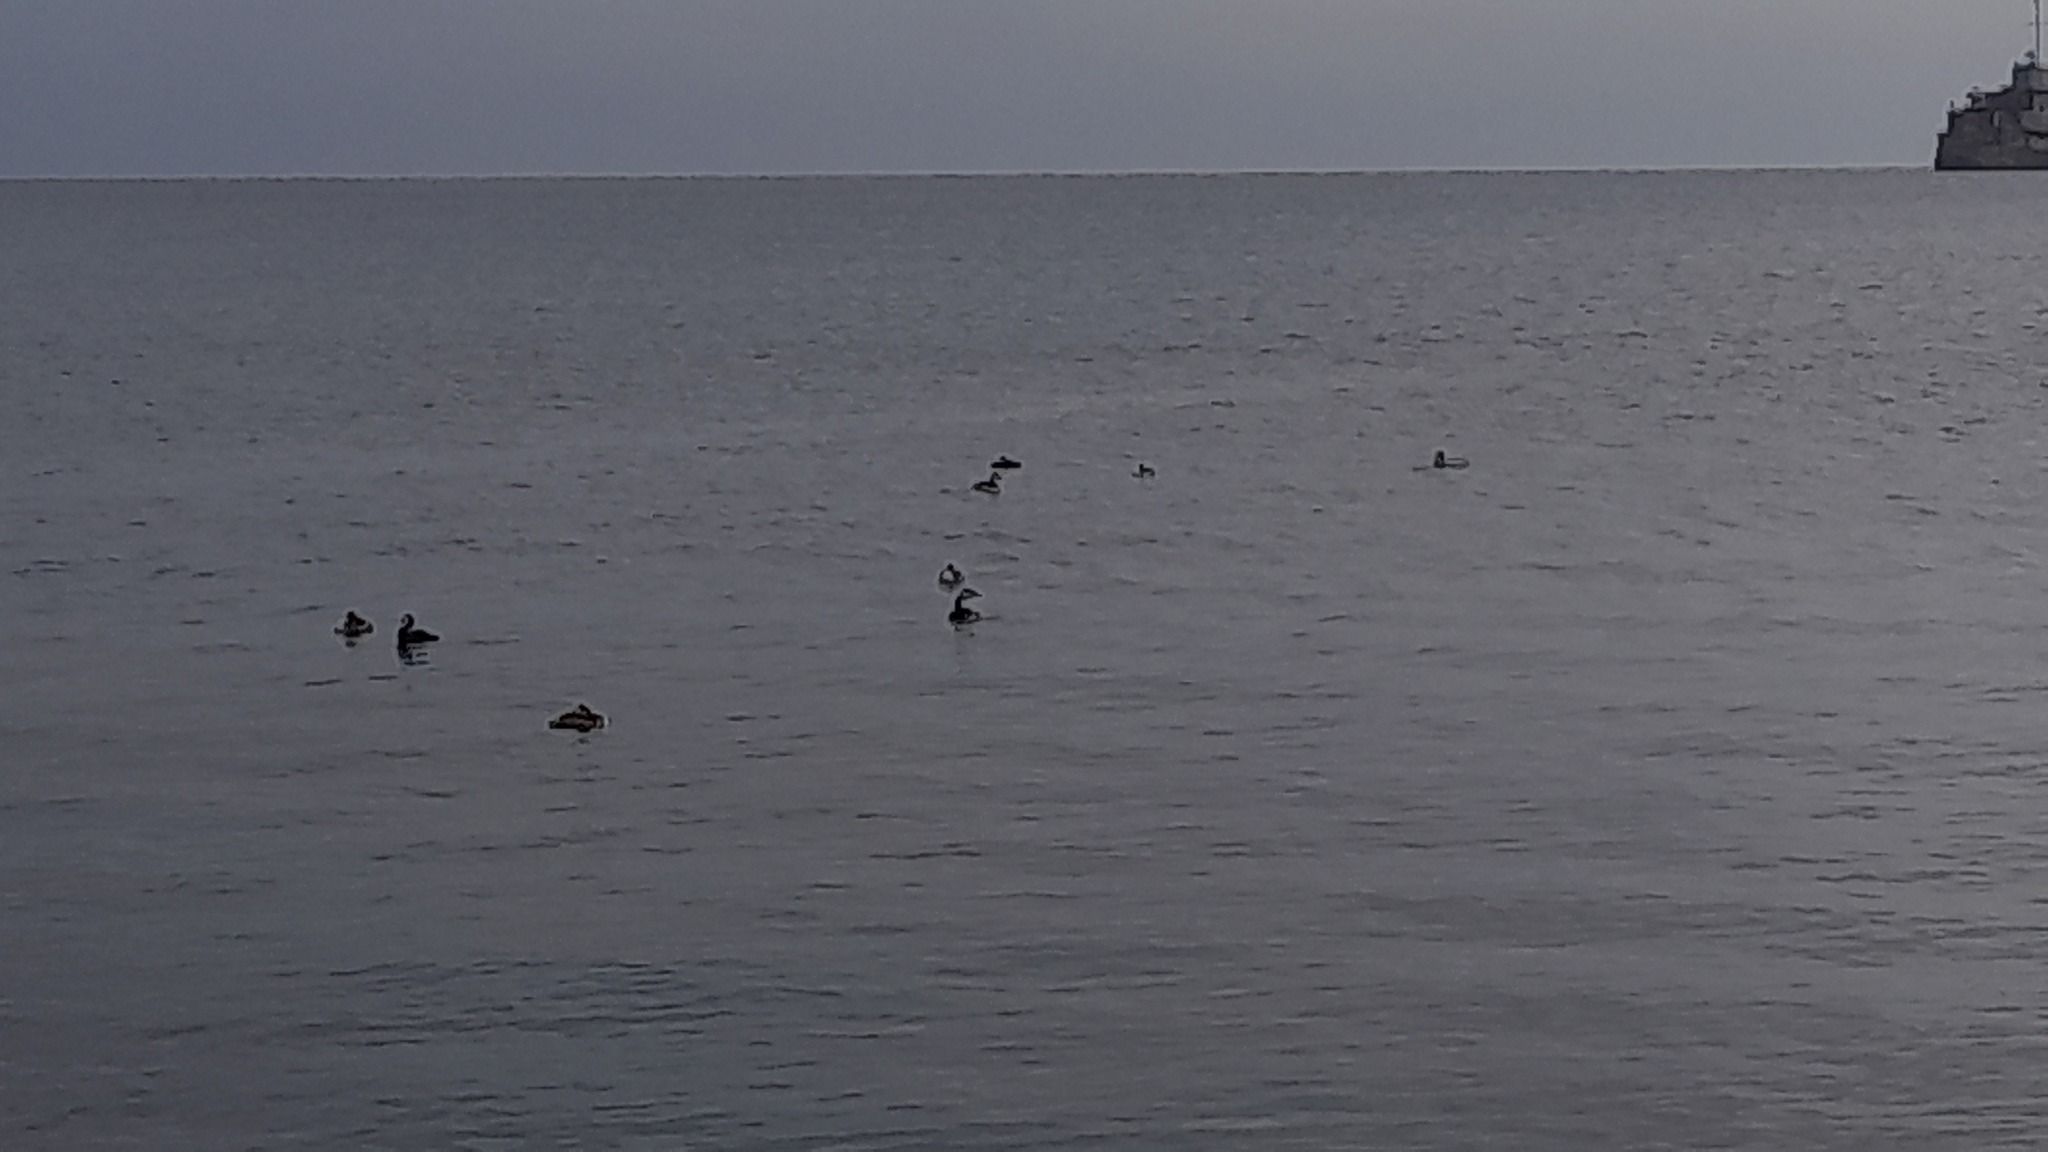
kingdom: Animalia
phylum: Chordata
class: Aves
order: Podicipediformes
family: Podicipedidae
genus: Podiceps
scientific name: Podiceps cristatus
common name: Great crested grebe
